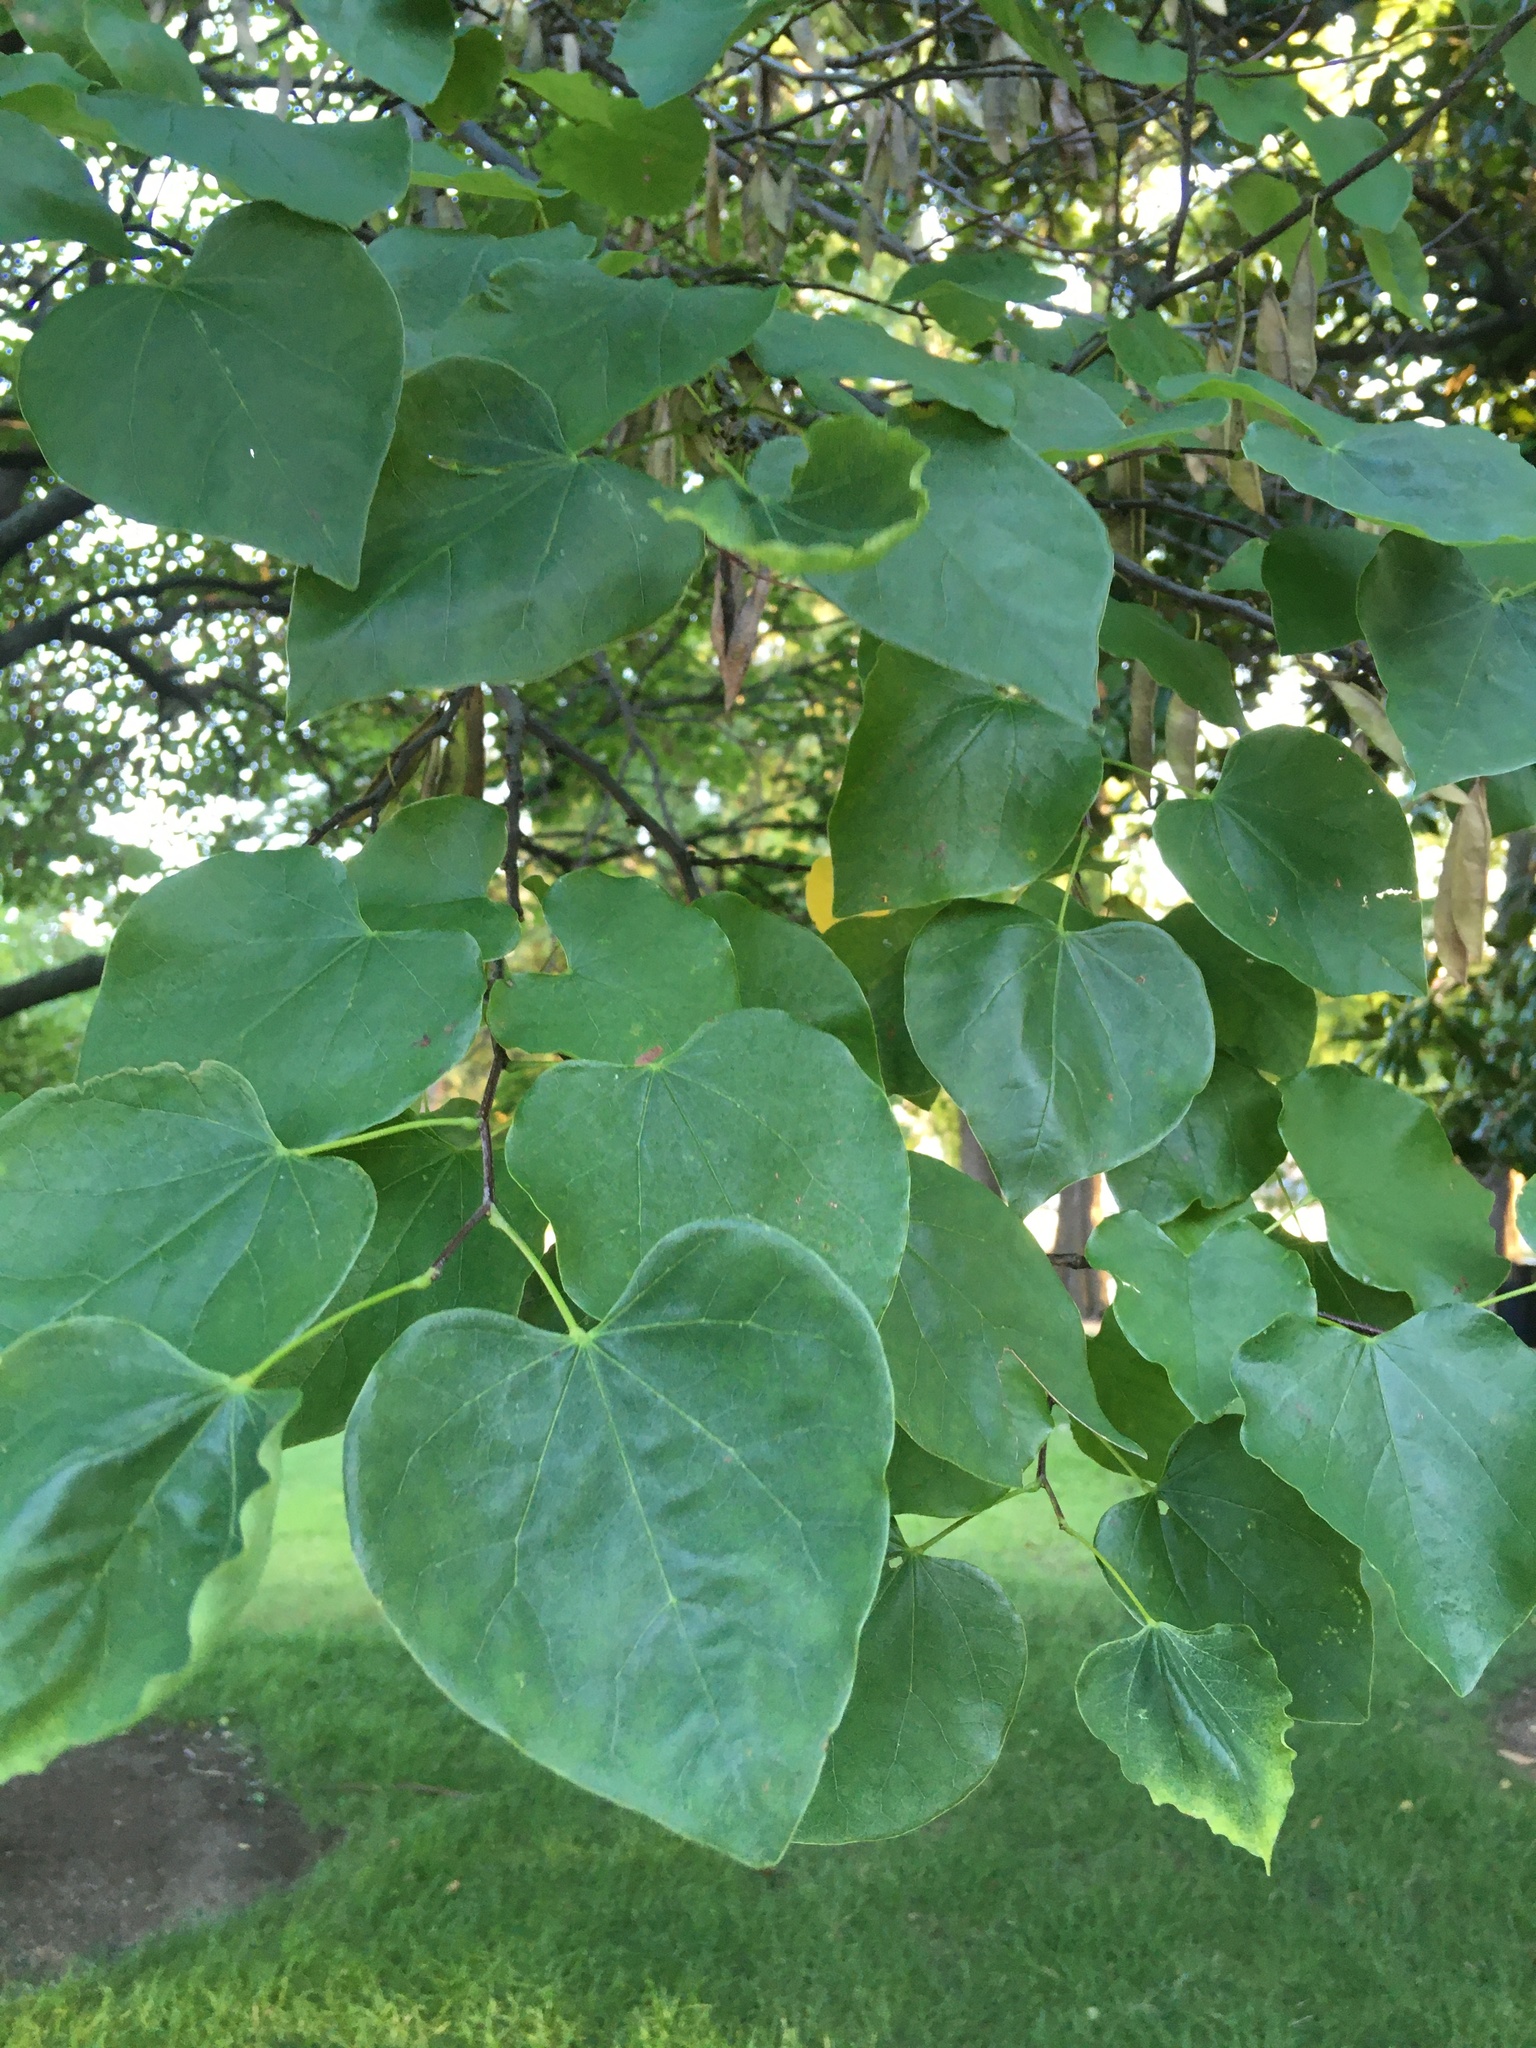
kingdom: Plantae
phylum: Tracheophyta
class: Magnoliopsida
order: Fabales
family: Fabaceae
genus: Cercis
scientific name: Cercis canadensis
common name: Eastern redbud
